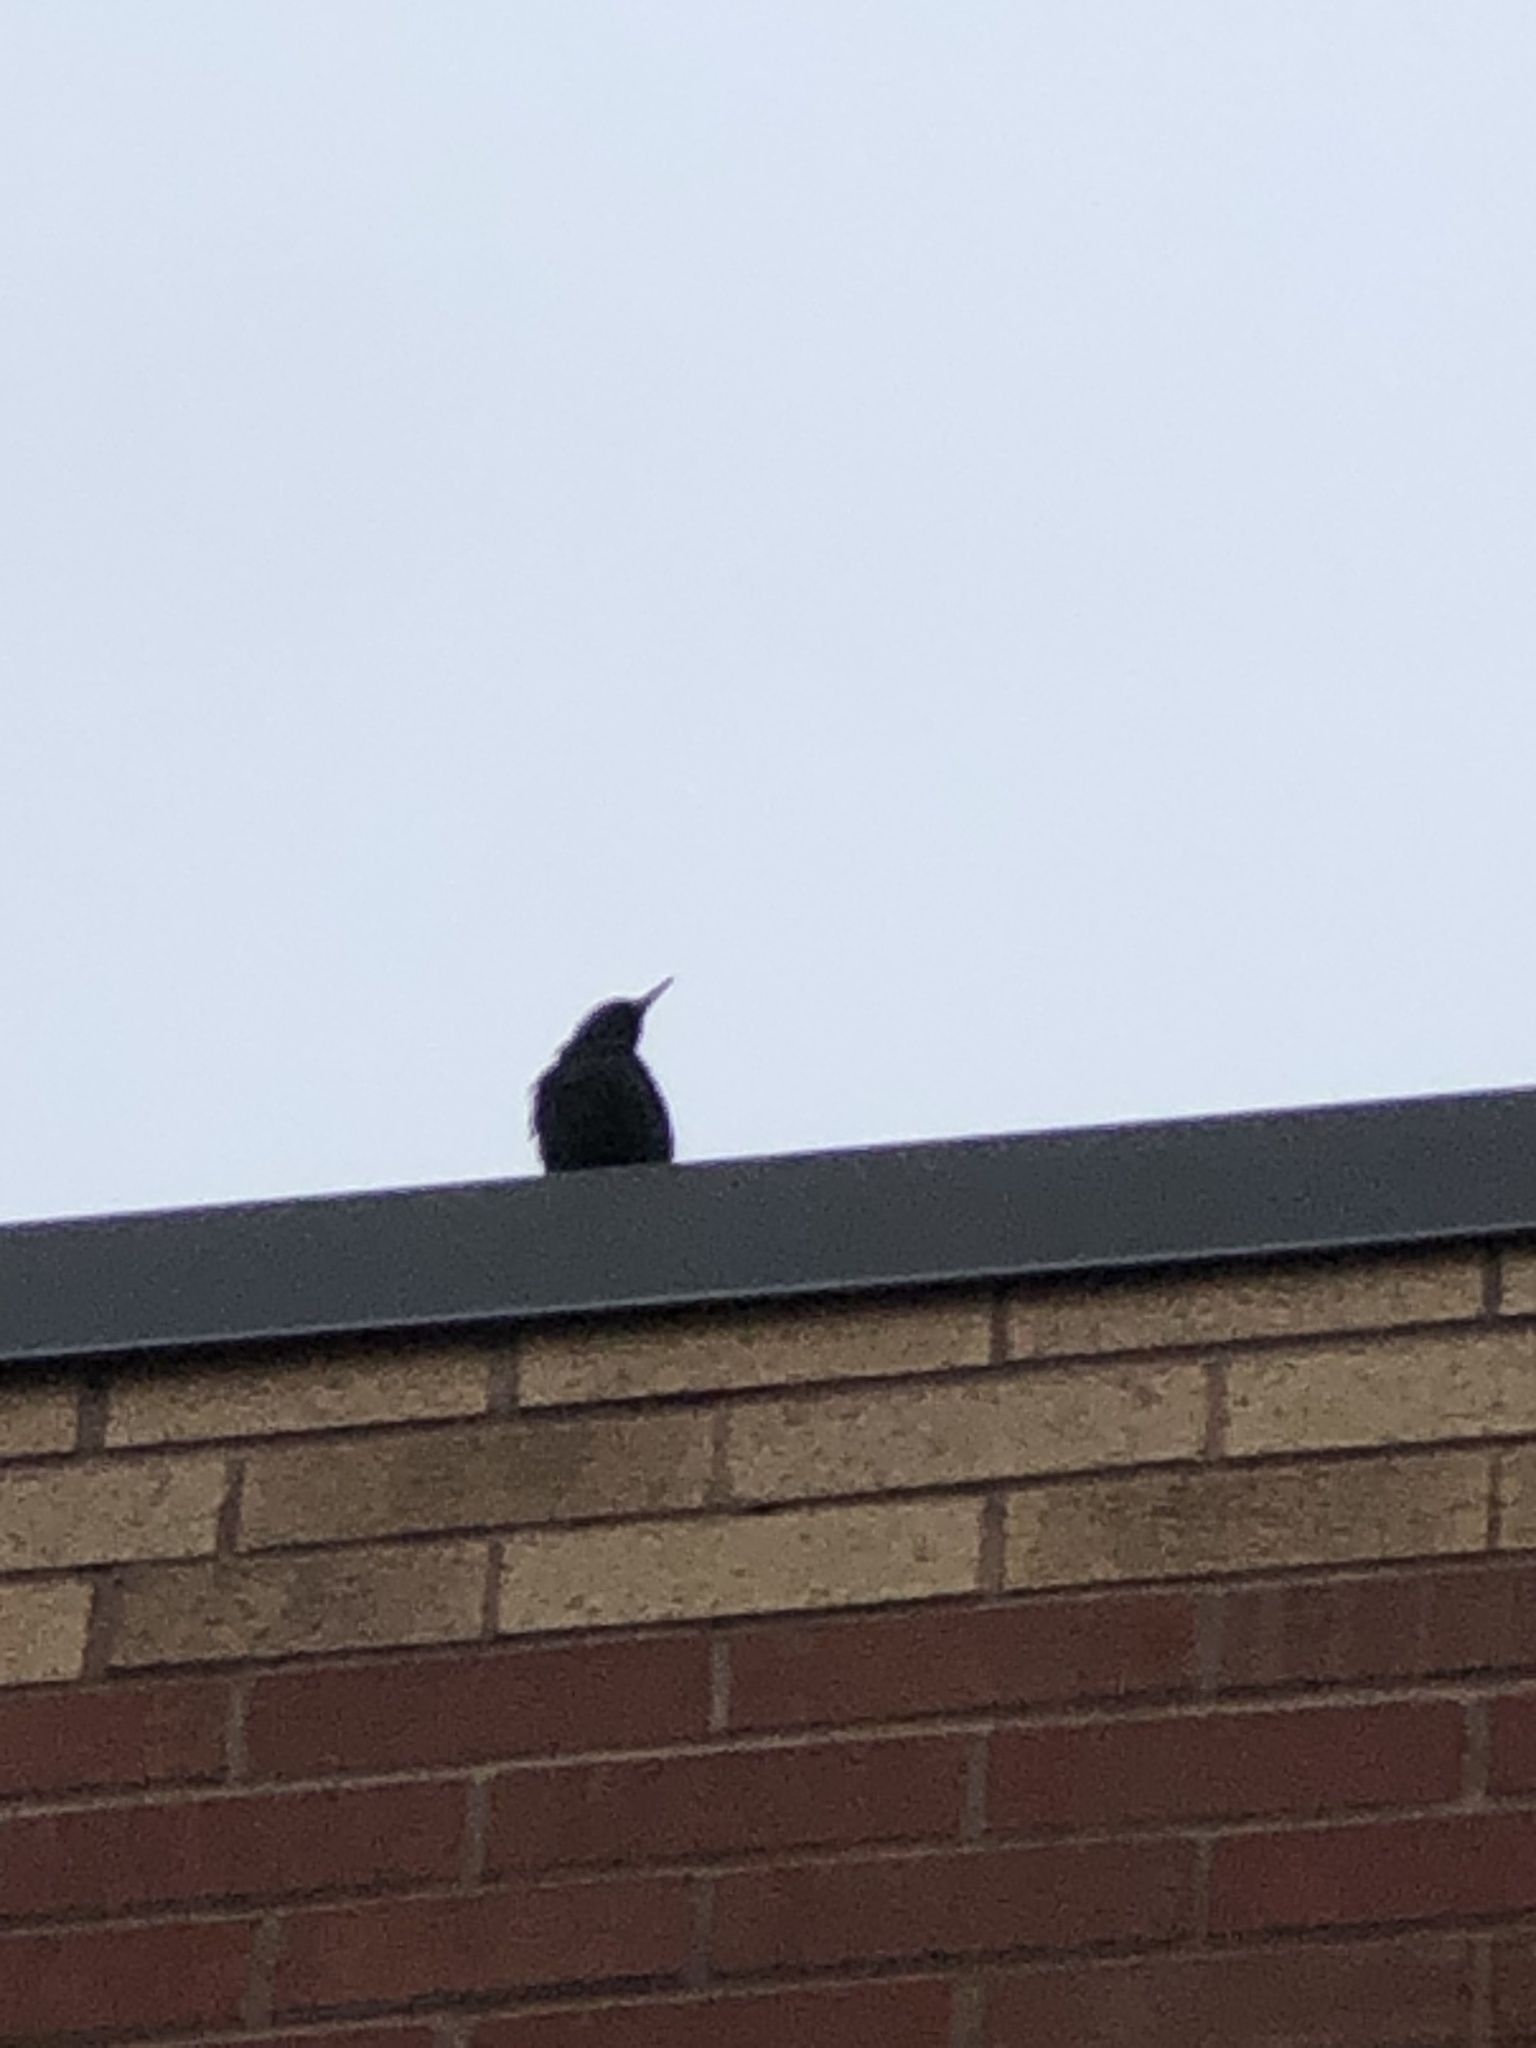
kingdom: Animalia
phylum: Chordata
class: Aves
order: Passeriformes
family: Sturnidae
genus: Sturnus
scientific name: Sturnus vulgaris
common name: Common starling
